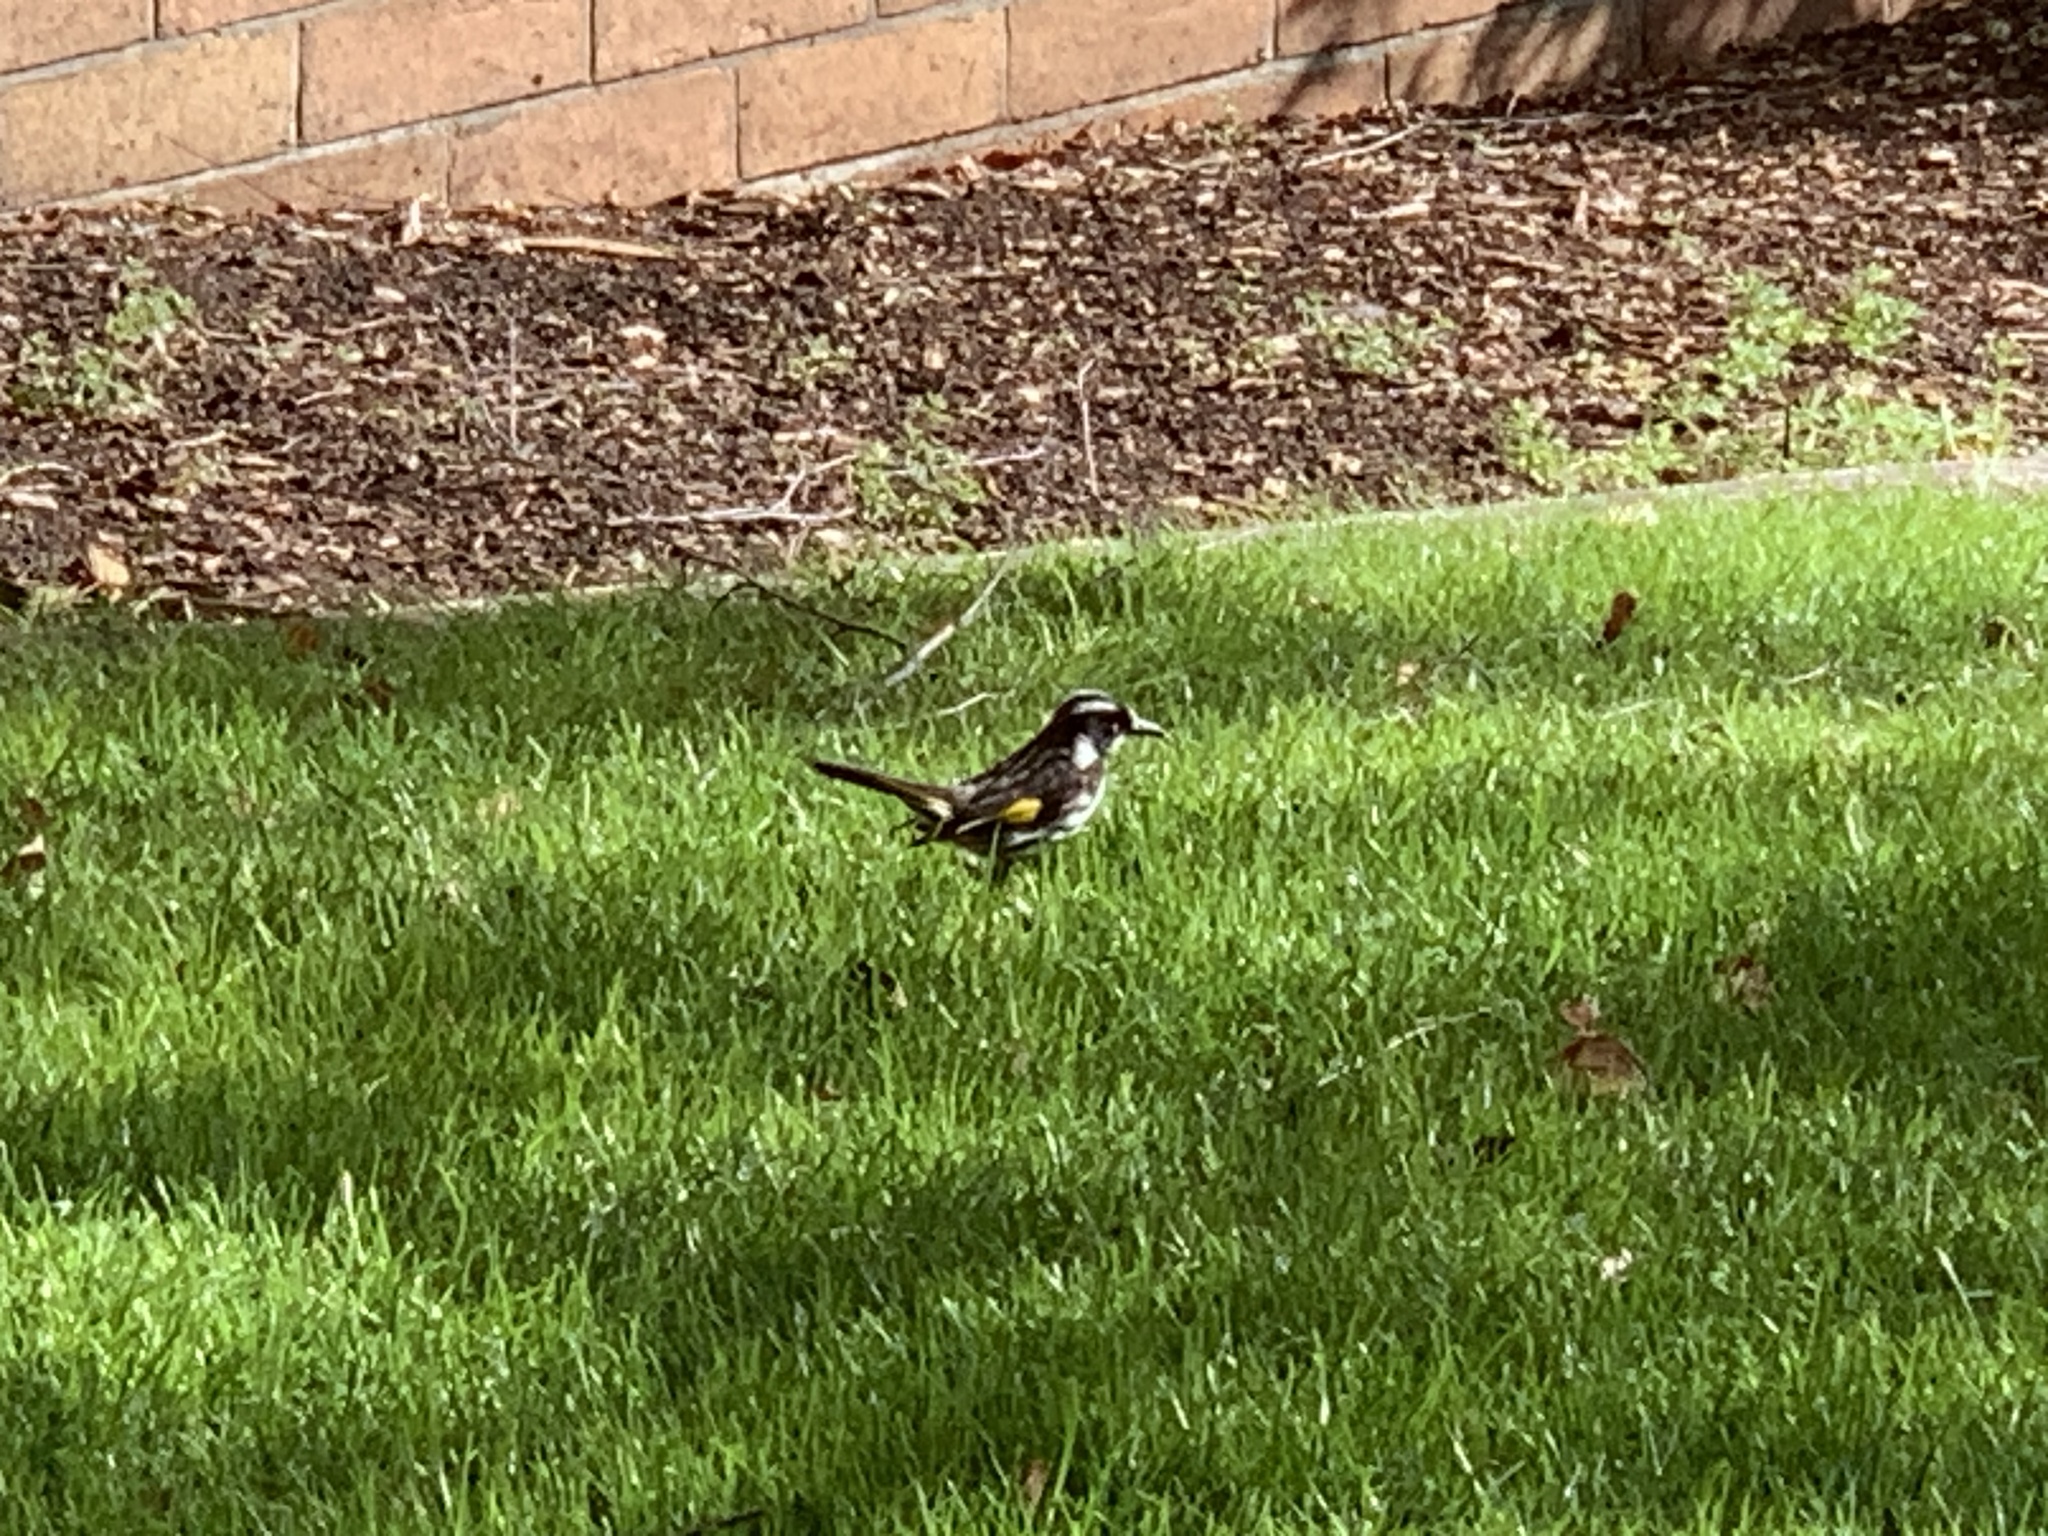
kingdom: Animalia
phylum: Chordata
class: Aves
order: Passeriformes
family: Meliphagidae
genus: Phylidonyris
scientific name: Phylidonyris novaehollandiae
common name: New holland honeyeater
